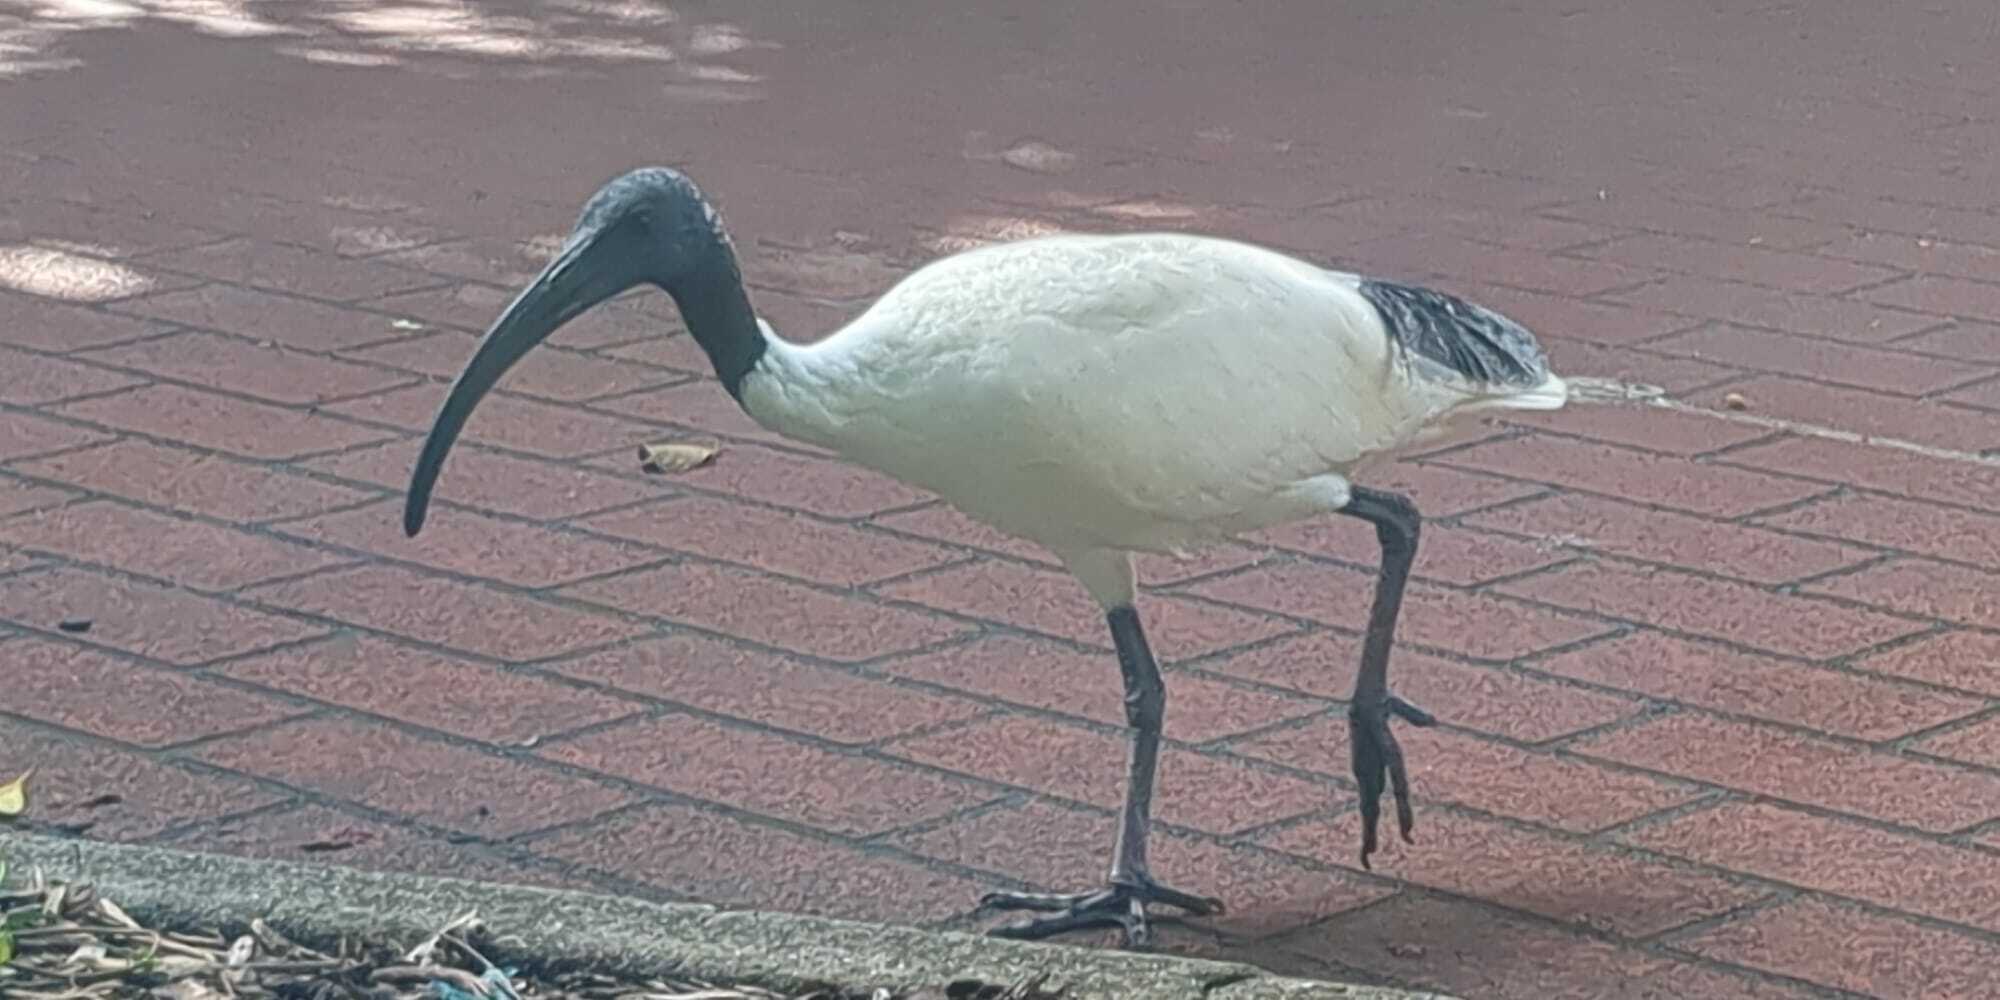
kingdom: Animalia
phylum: Chordata
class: Aves
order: Pelecaniformes
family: Threskiornithidae
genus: Threskiornis
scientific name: Threskiornis molucca
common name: Australian white ibis
